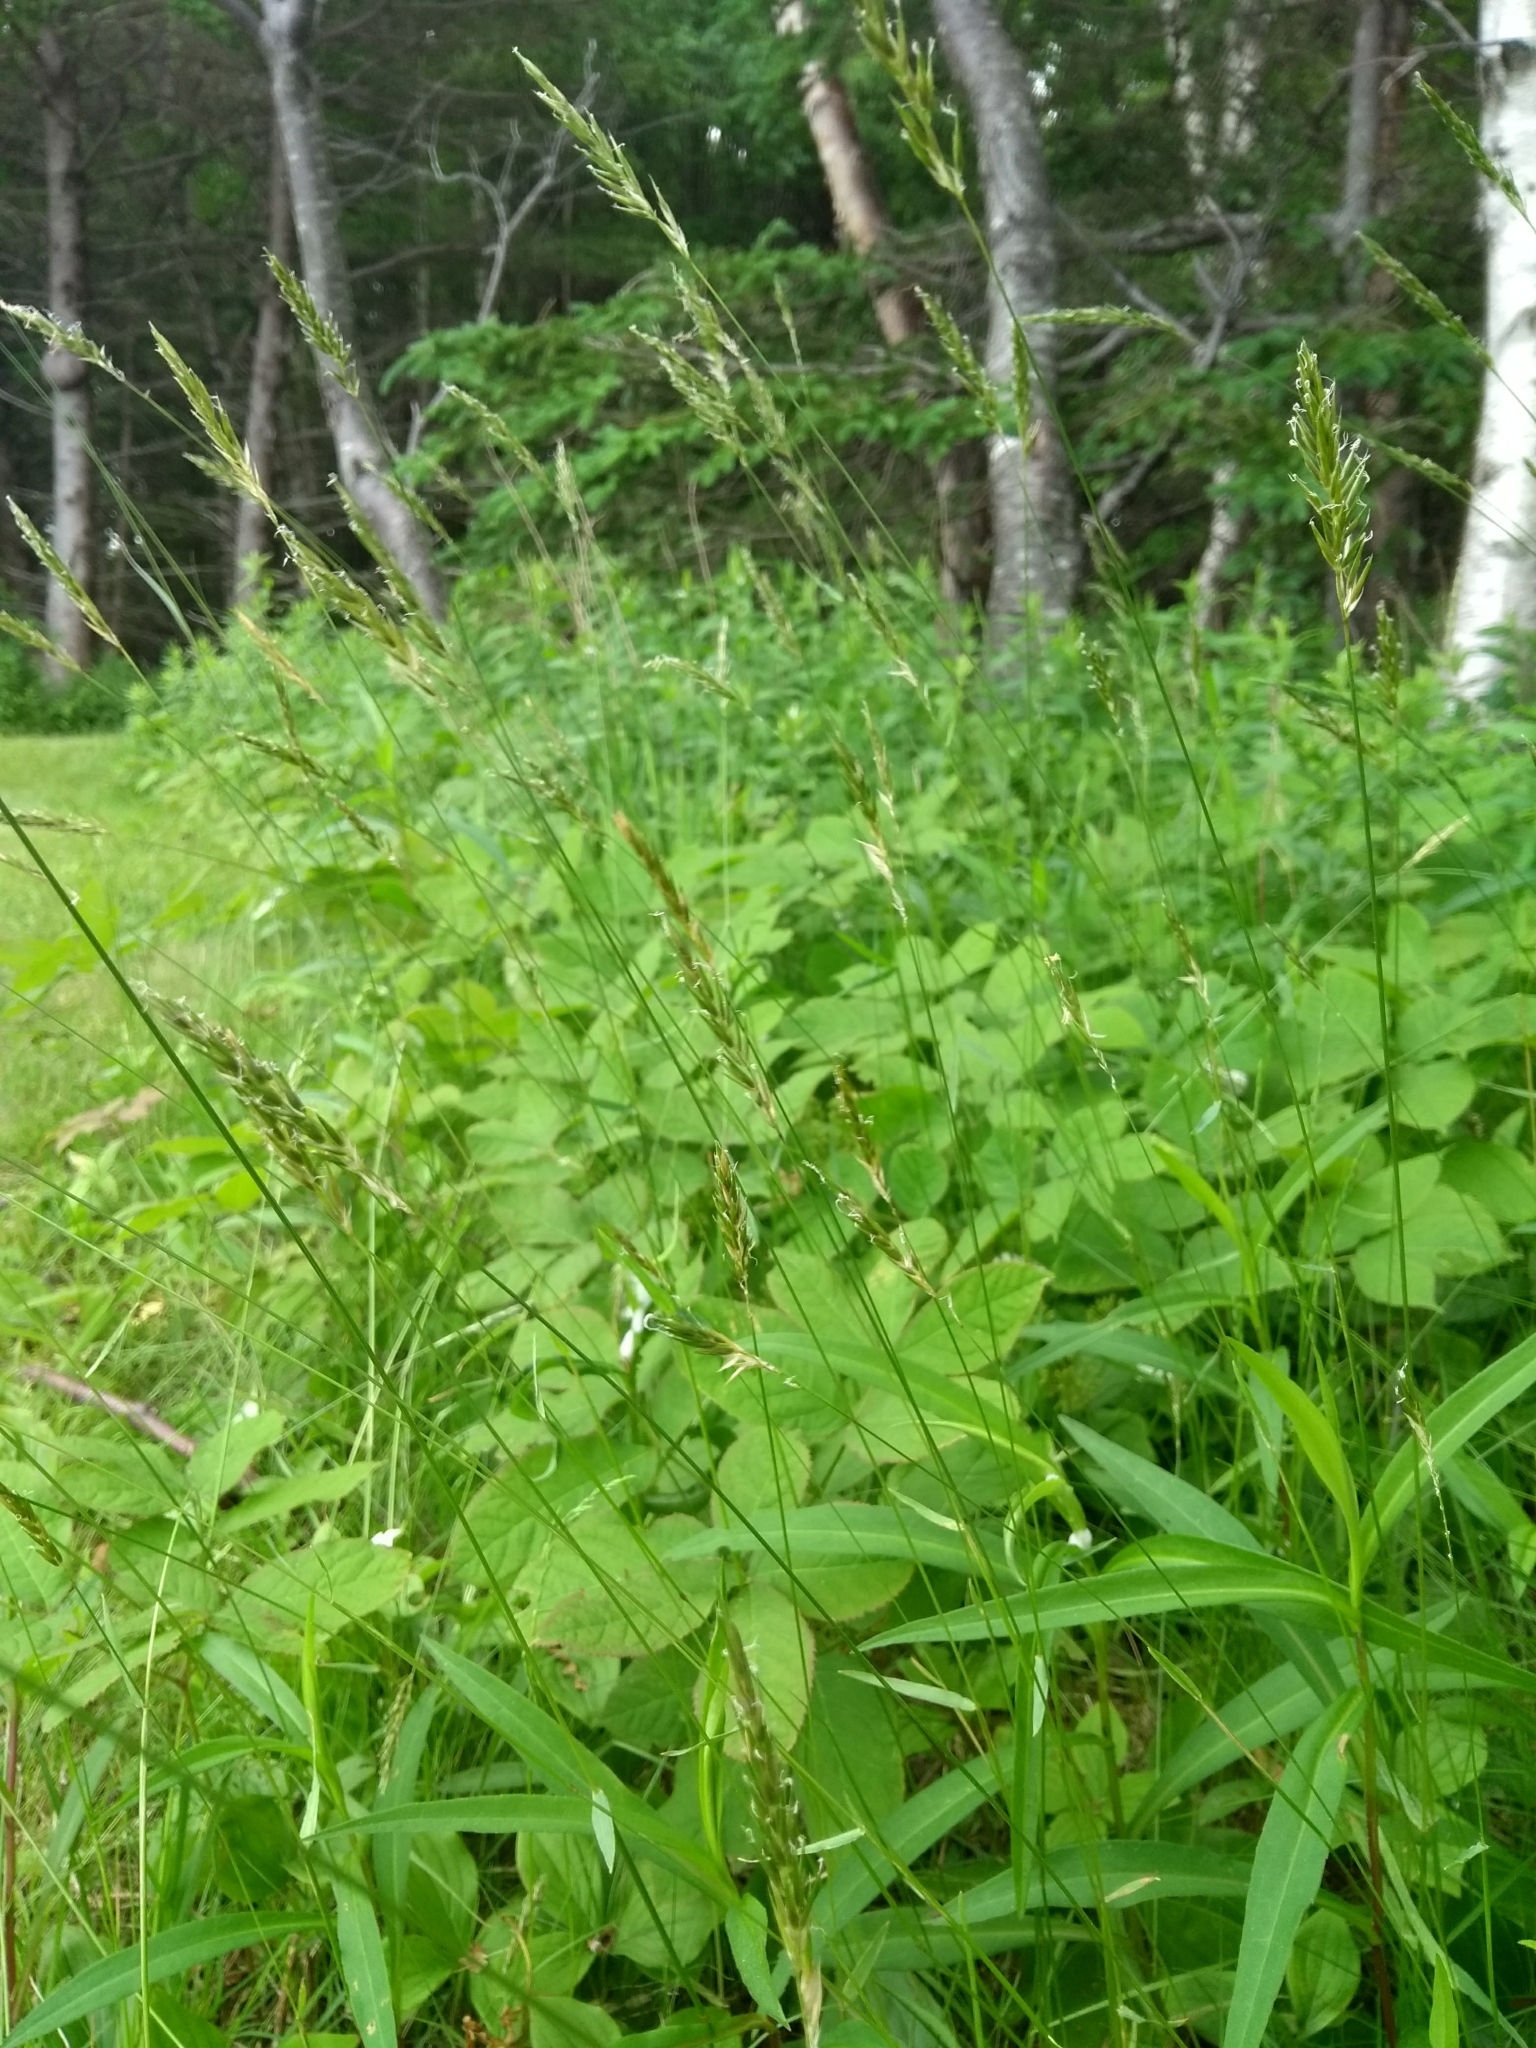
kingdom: Plantae
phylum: Tracheophyta
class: Liliopsida
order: Poales
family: Poaceae
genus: Anthoxanthum
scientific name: Anthoxanthum odoratum
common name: Sweet vernalgrass
